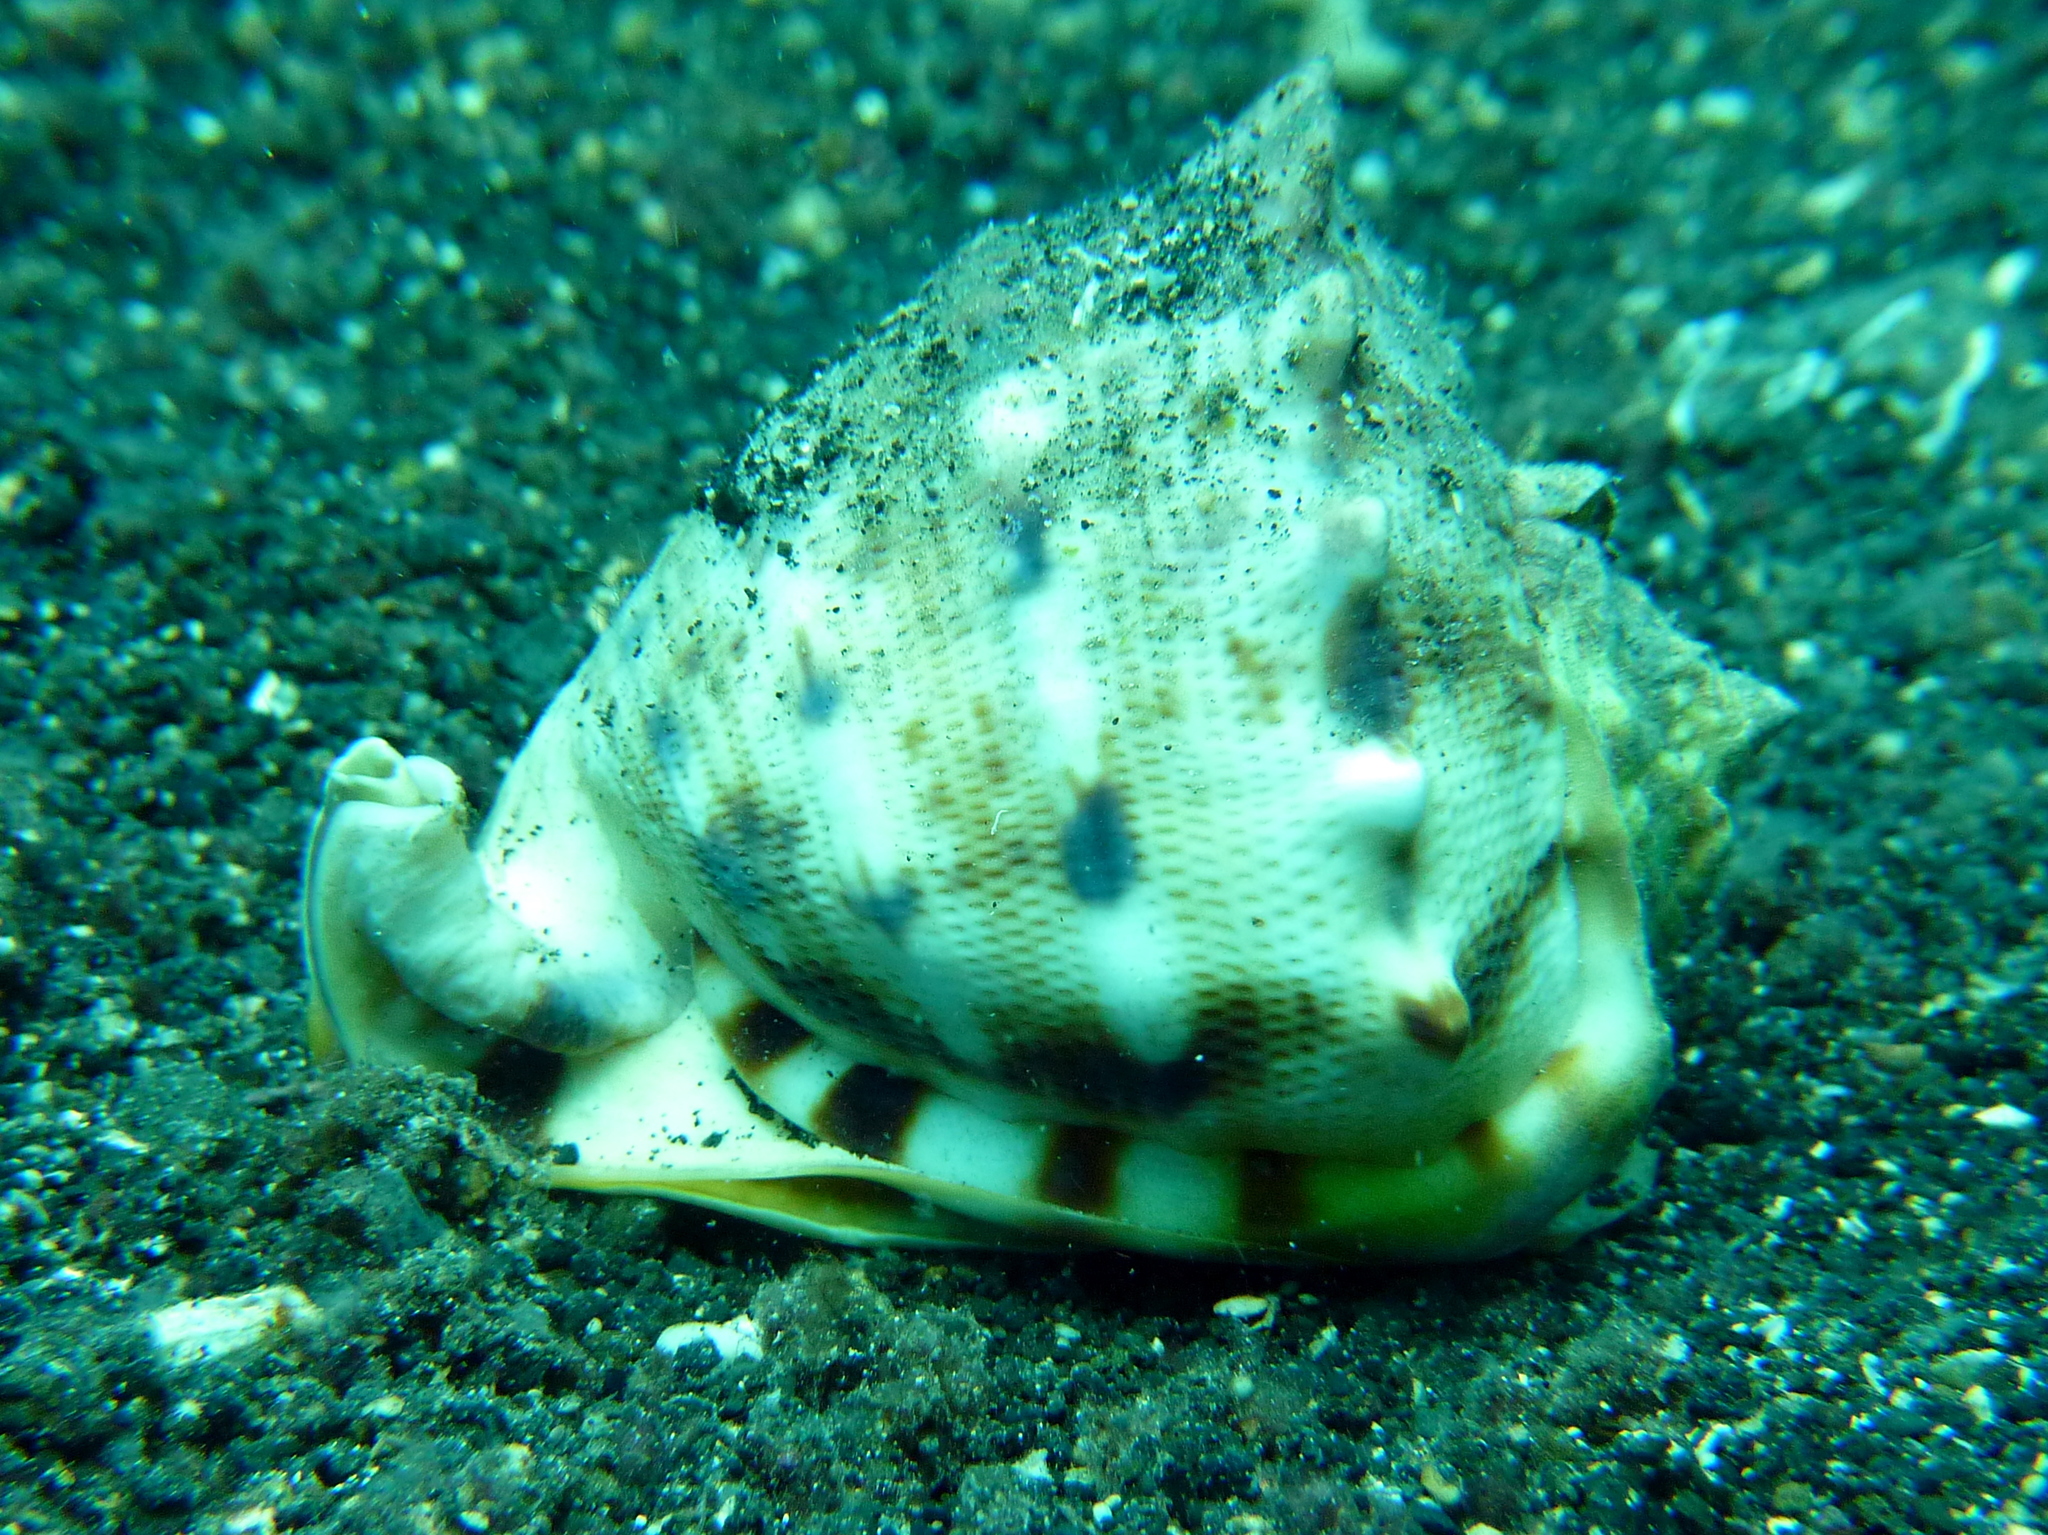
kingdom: Animalia
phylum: Mollusca
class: Gastropoda
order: Littorinimorpha
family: Cassidae
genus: Cassis
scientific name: Cassis cornuta
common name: Giant helmet
